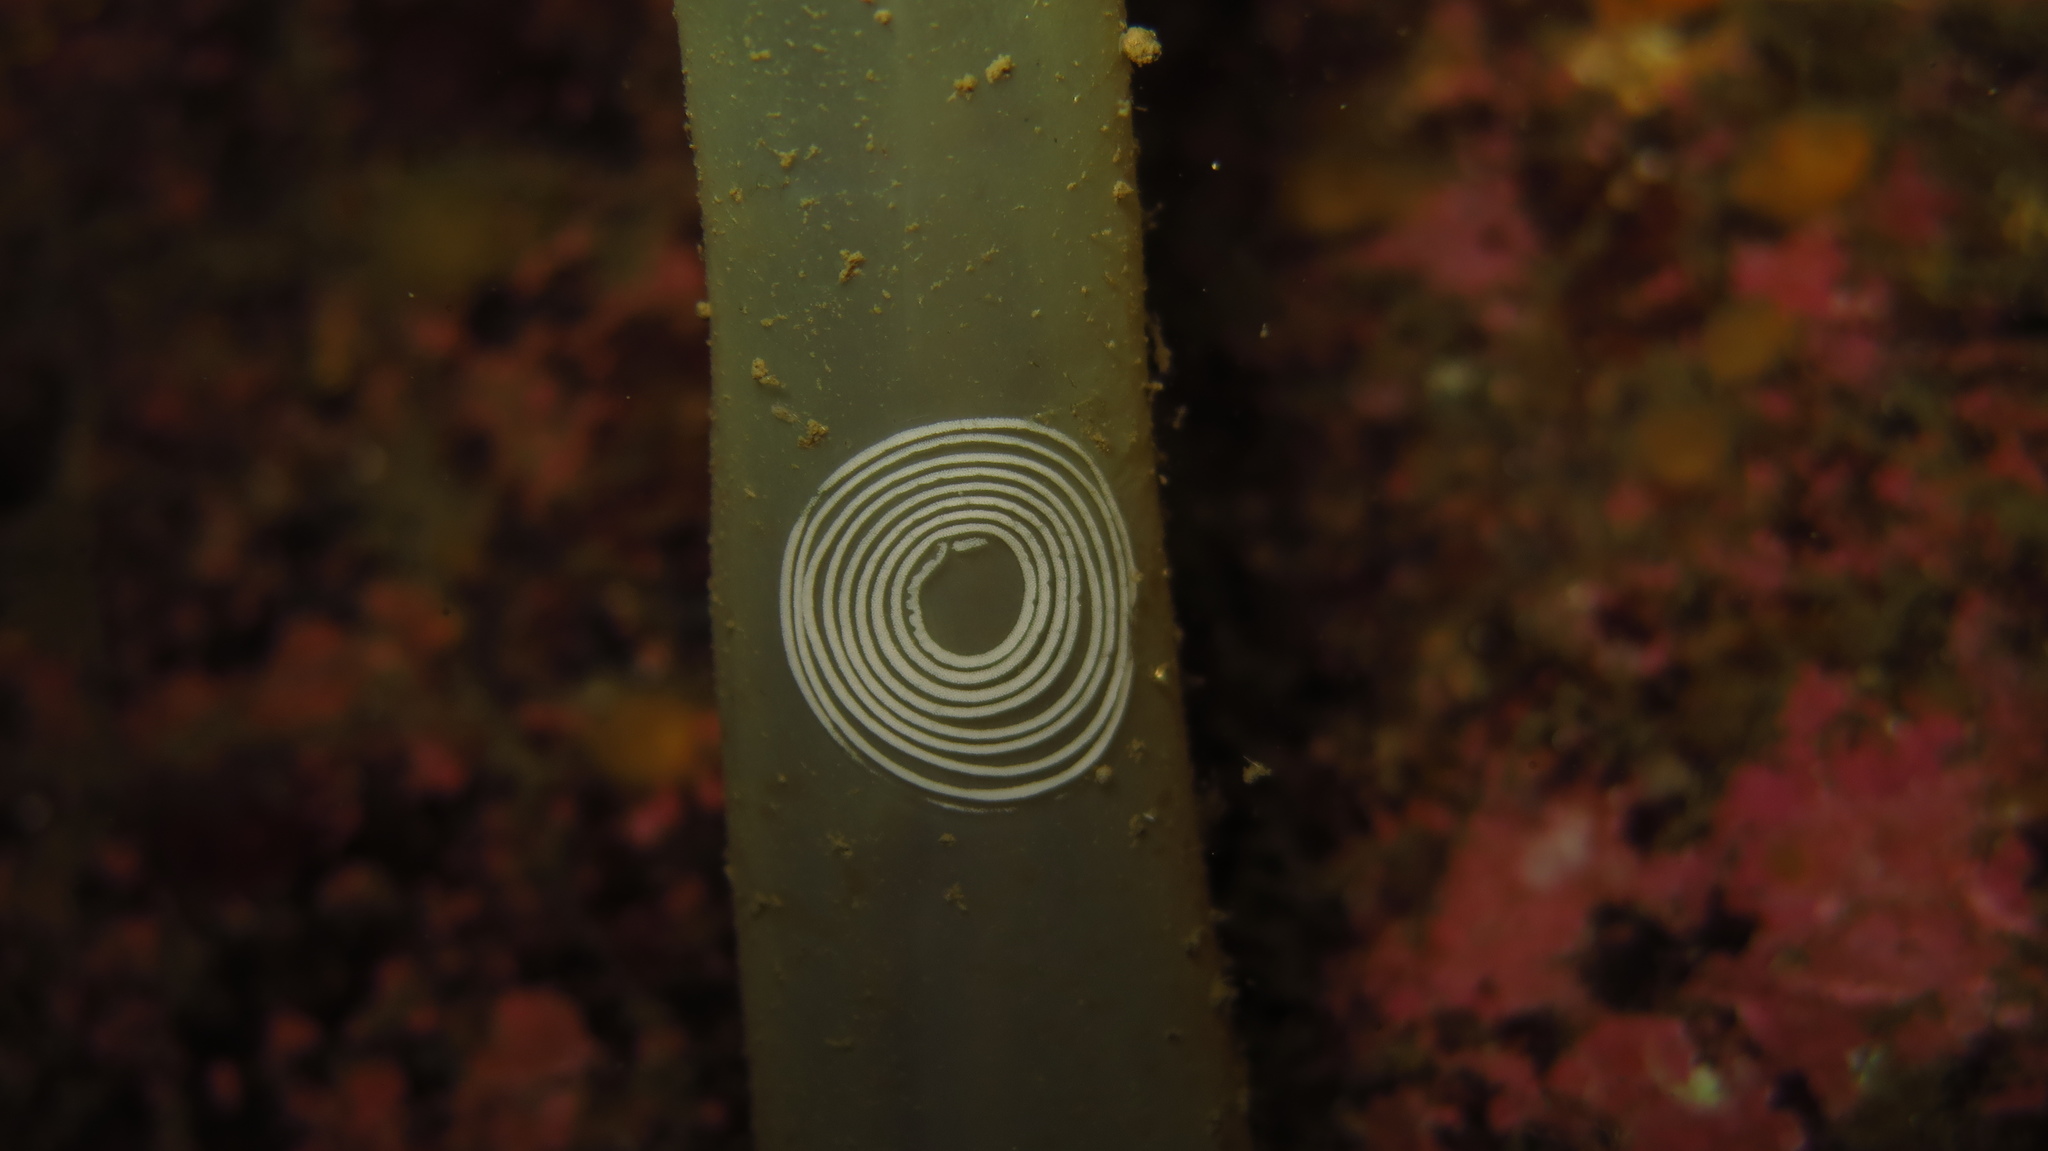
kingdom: Animalia
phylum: Mollusca
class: Gastropoda
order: Nudibranchia
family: Coryphellidae
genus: Coryphella
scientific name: Coryphella verrucosa
